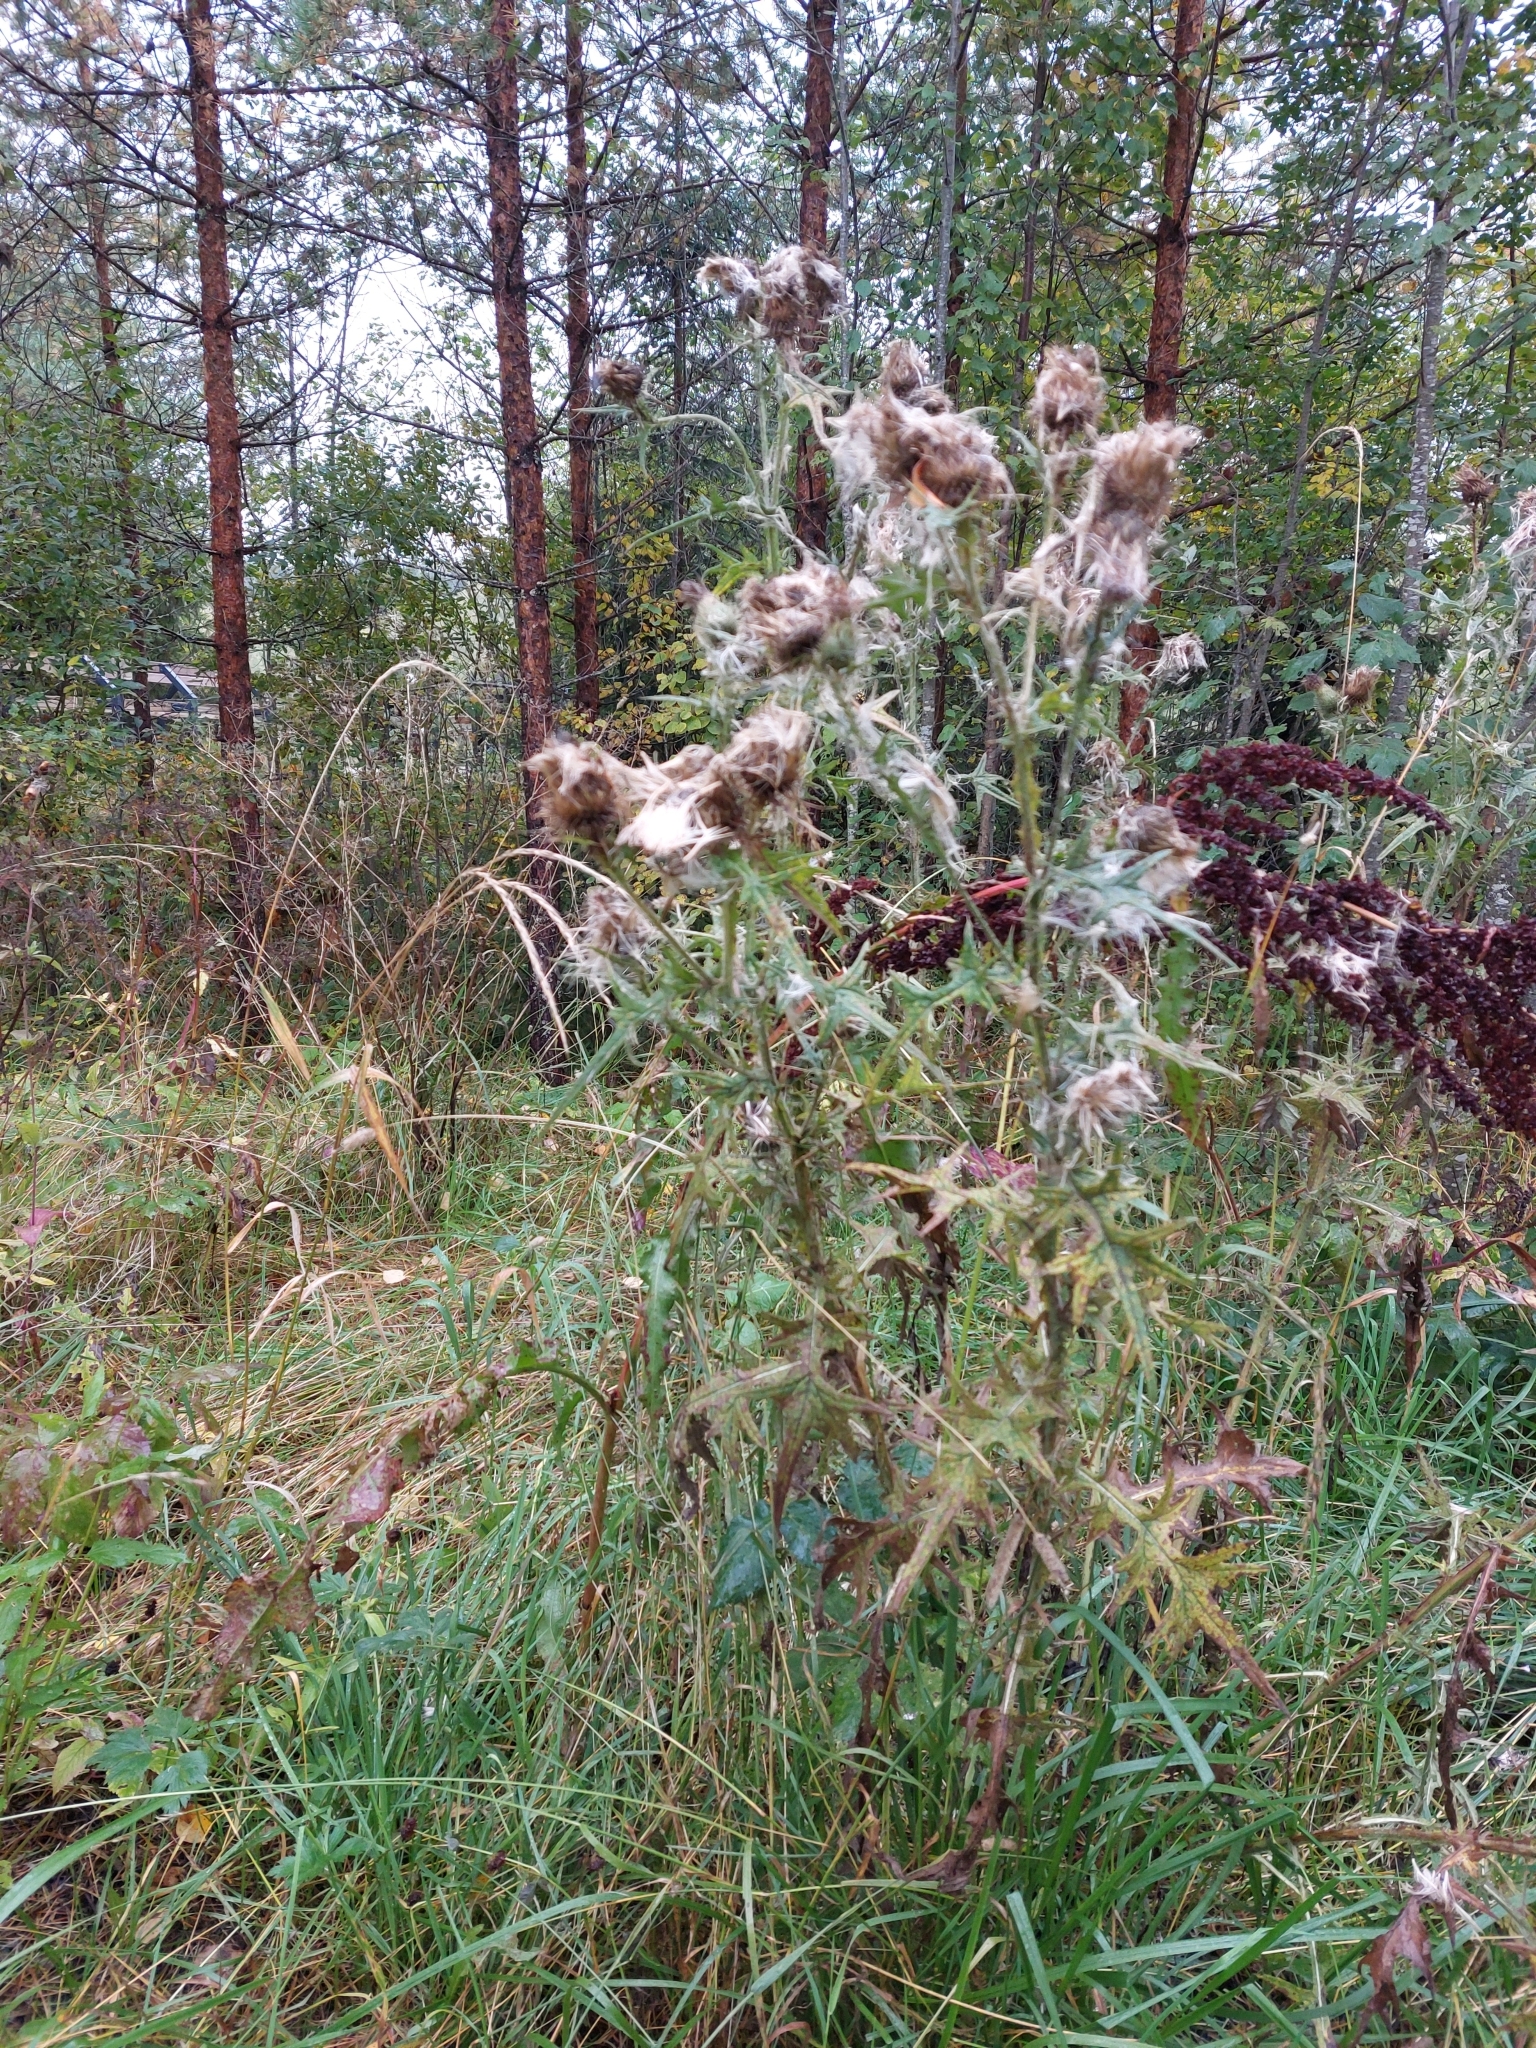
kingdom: Plantae
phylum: Tracheophyta
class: Magnoliopsida
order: Asterales
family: Asteraceae
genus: Cirsium
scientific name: Cirsium vulgare
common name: Bull thistle
